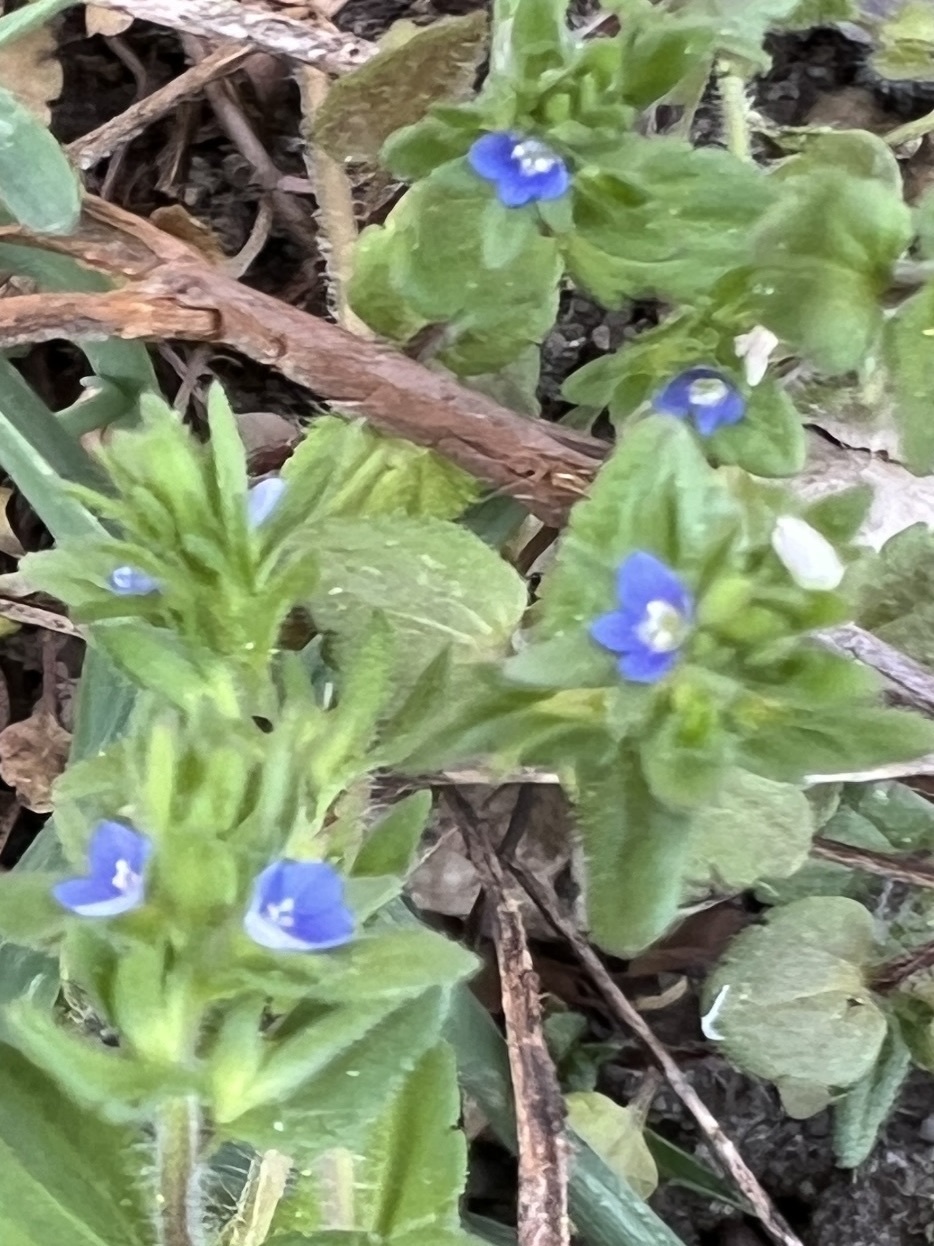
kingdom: Plantae
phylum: Tracheophyta
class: Magnoliopsida
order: Lamiales
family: Plantaginaceae
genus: Veronica
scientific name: Veronica arvensis
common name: Corn speedwell
